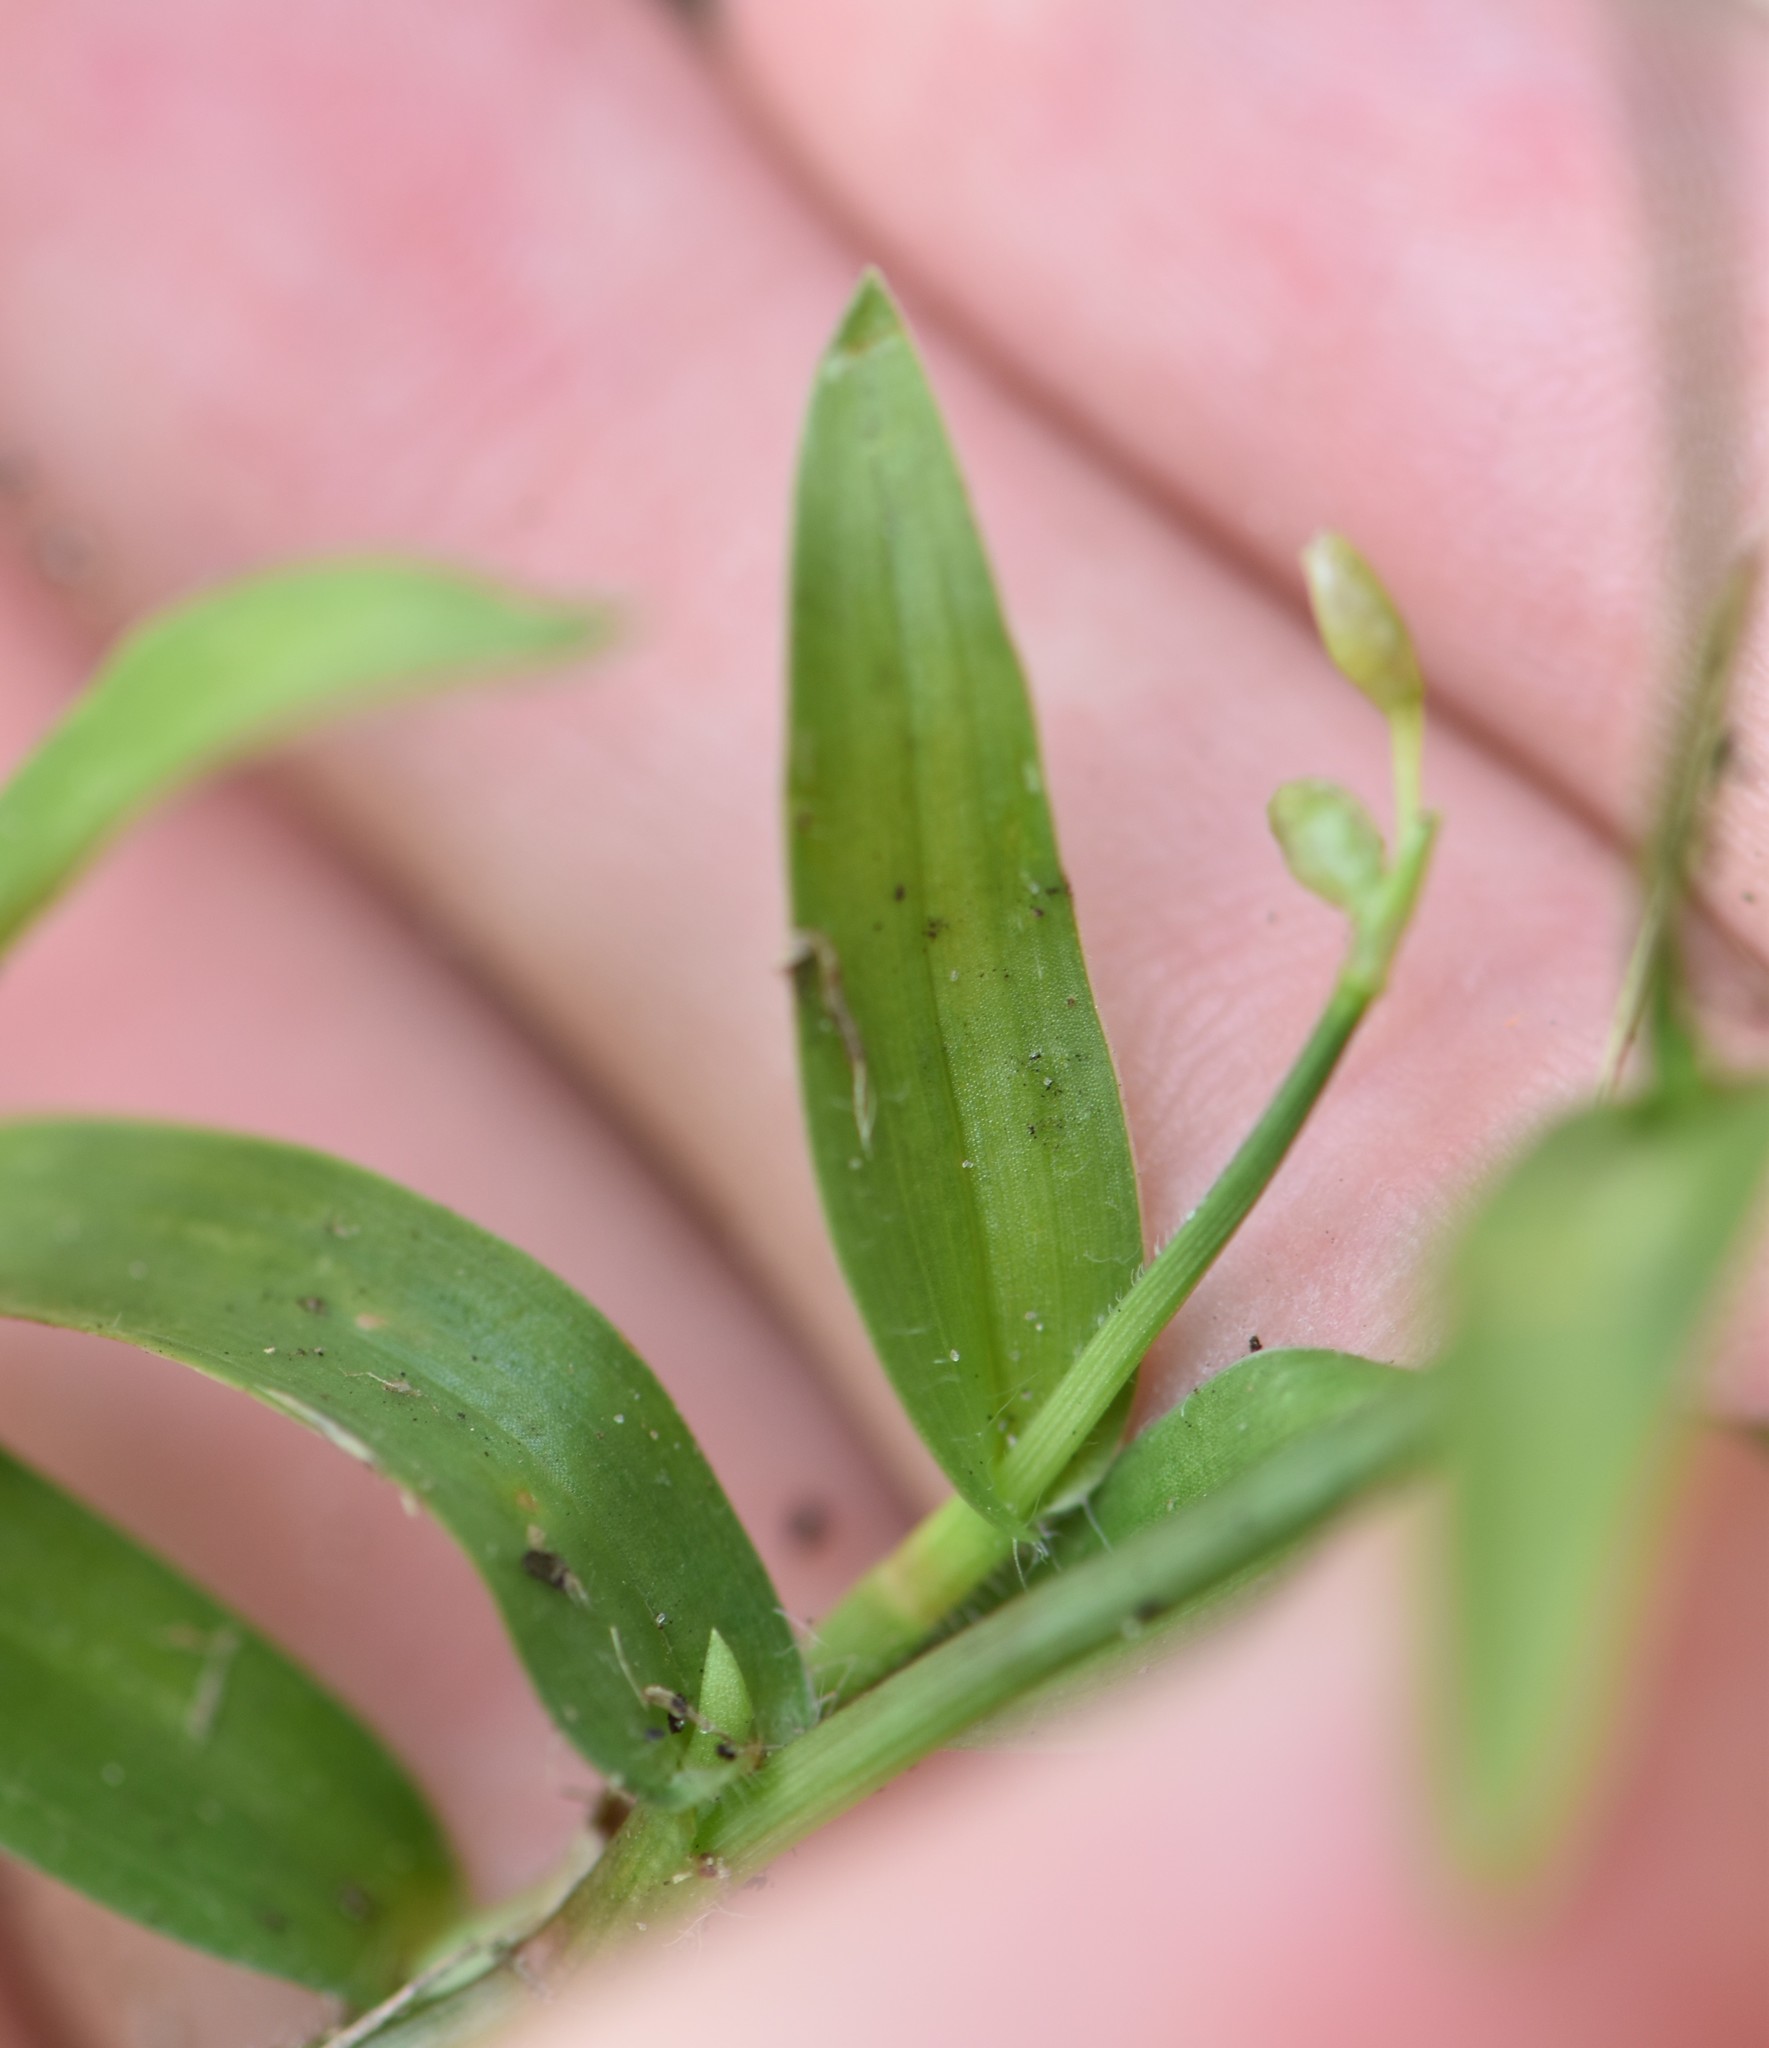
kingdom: Plantae
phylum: Tracheophyta
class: Liliopsida
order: Commelinales
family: Commelinaceae
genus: Murdannia
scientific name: Murdannia nudiflora
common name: Nakedstem dewflower
